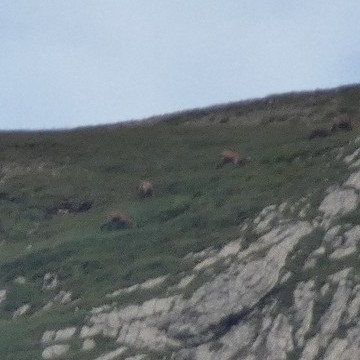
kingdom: Animalia
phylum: Chordata
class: Mammalia
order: Artiodactyla
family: Bovidae
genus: Rupicapra
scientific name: Rupicapra rupicapra
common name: Chamois
